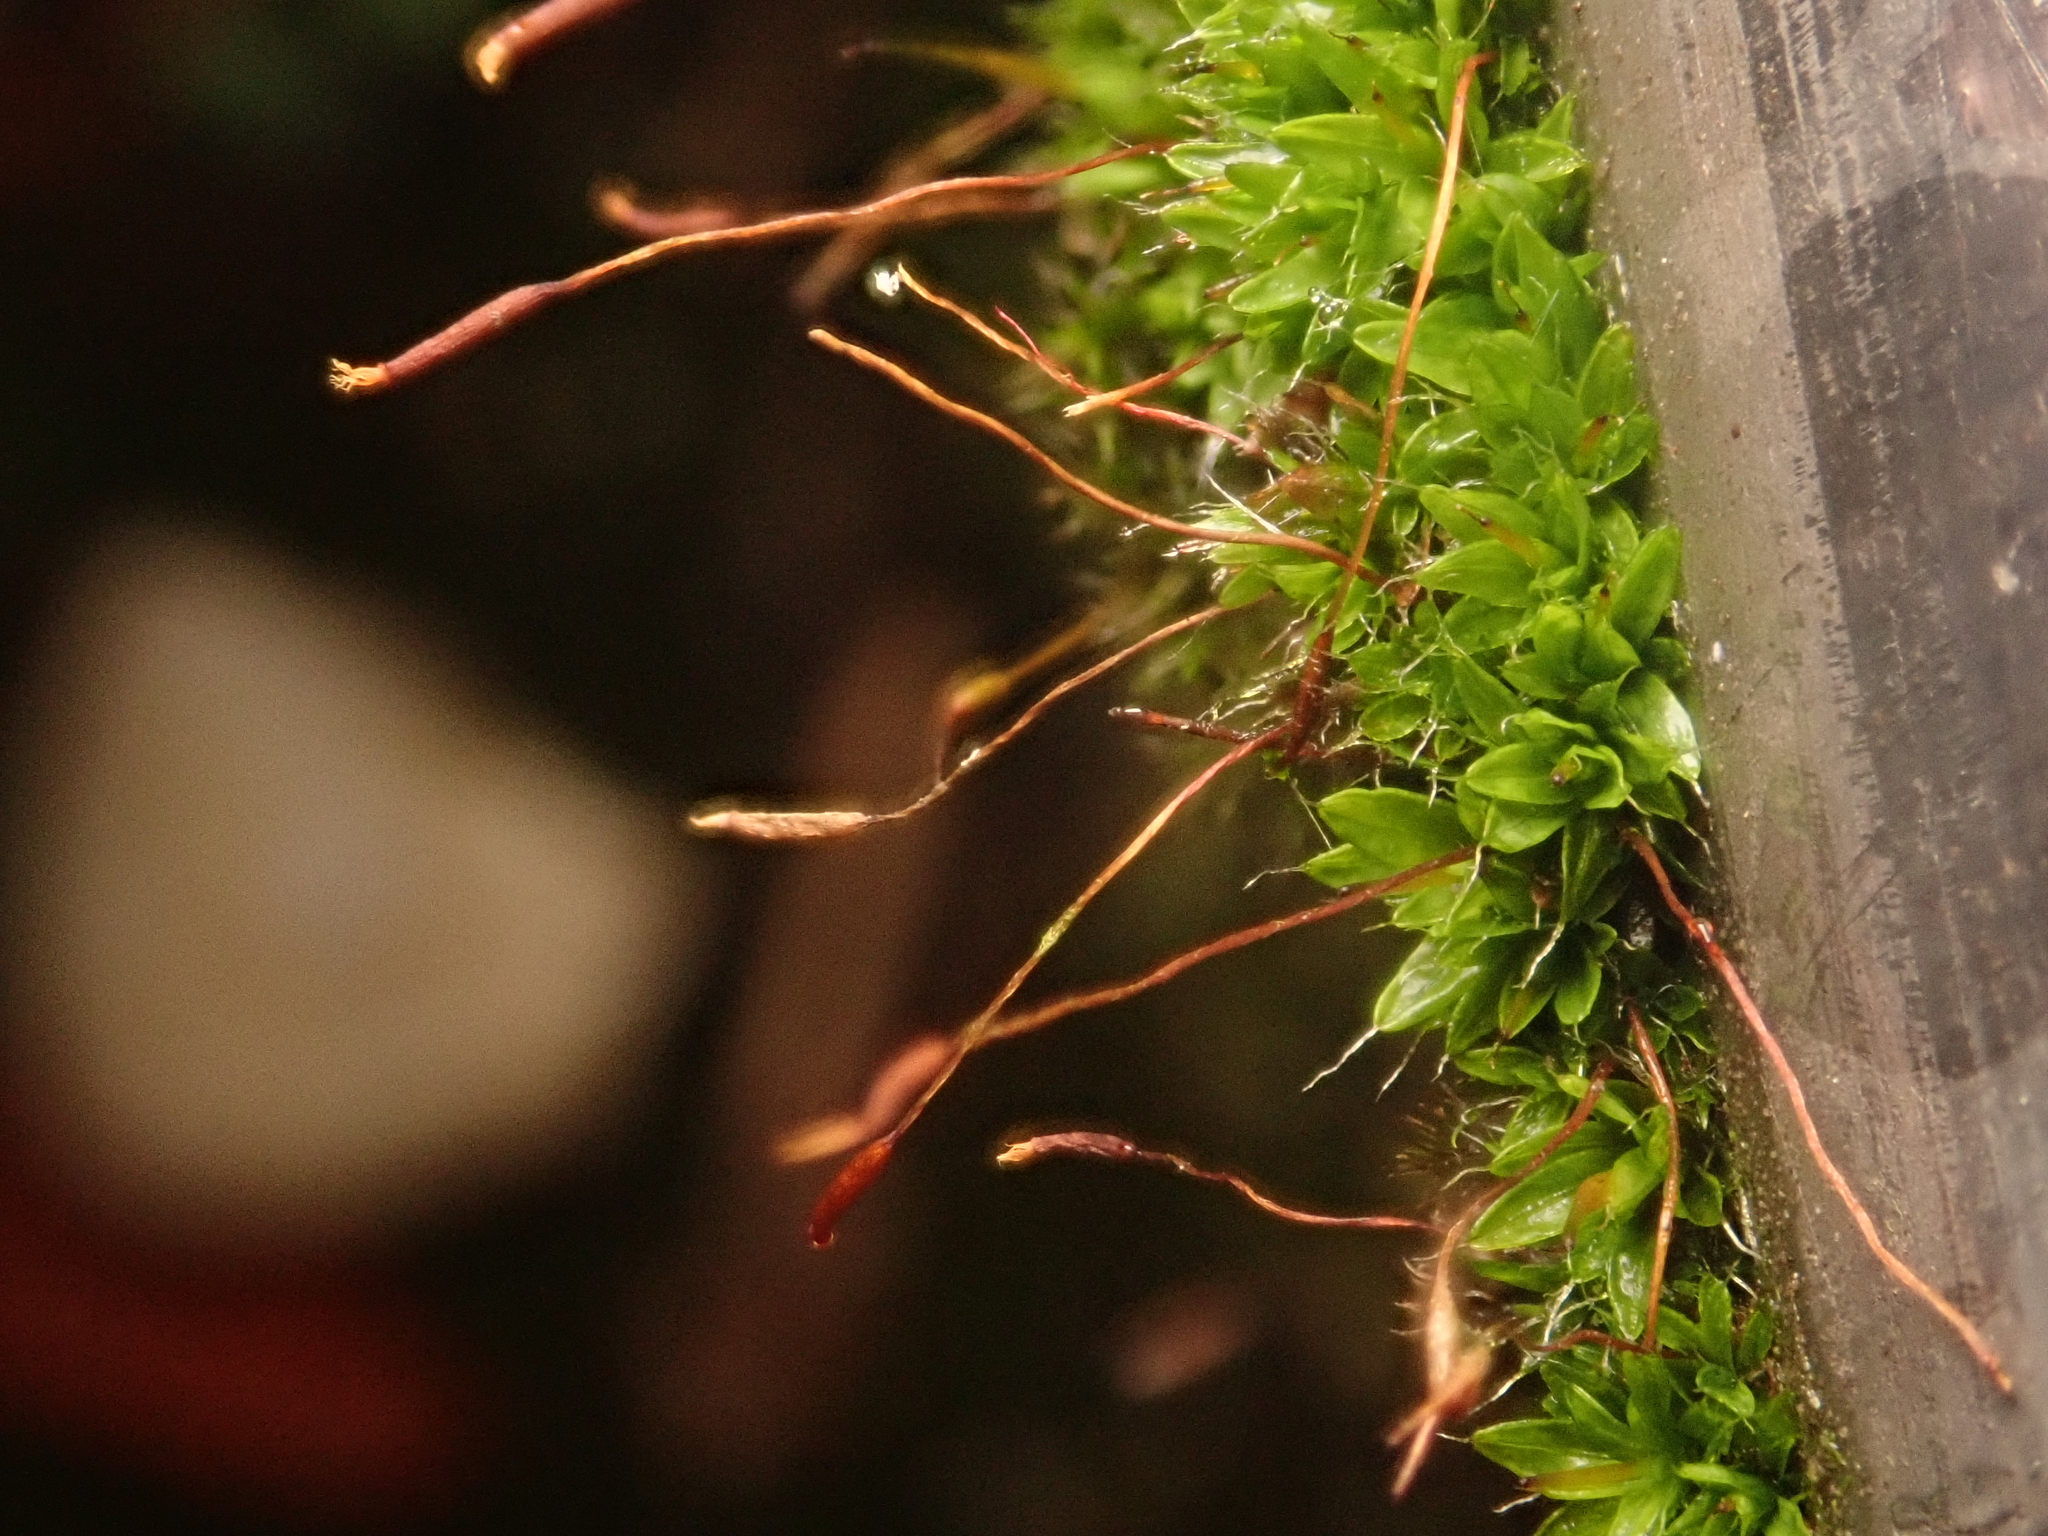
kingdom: Plantae
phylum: Bryophyta
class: Bryopsida
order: Pottiales
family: Pottiaceae
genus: Tortula
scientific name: Tortula muralis
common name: Wall screw-moss
